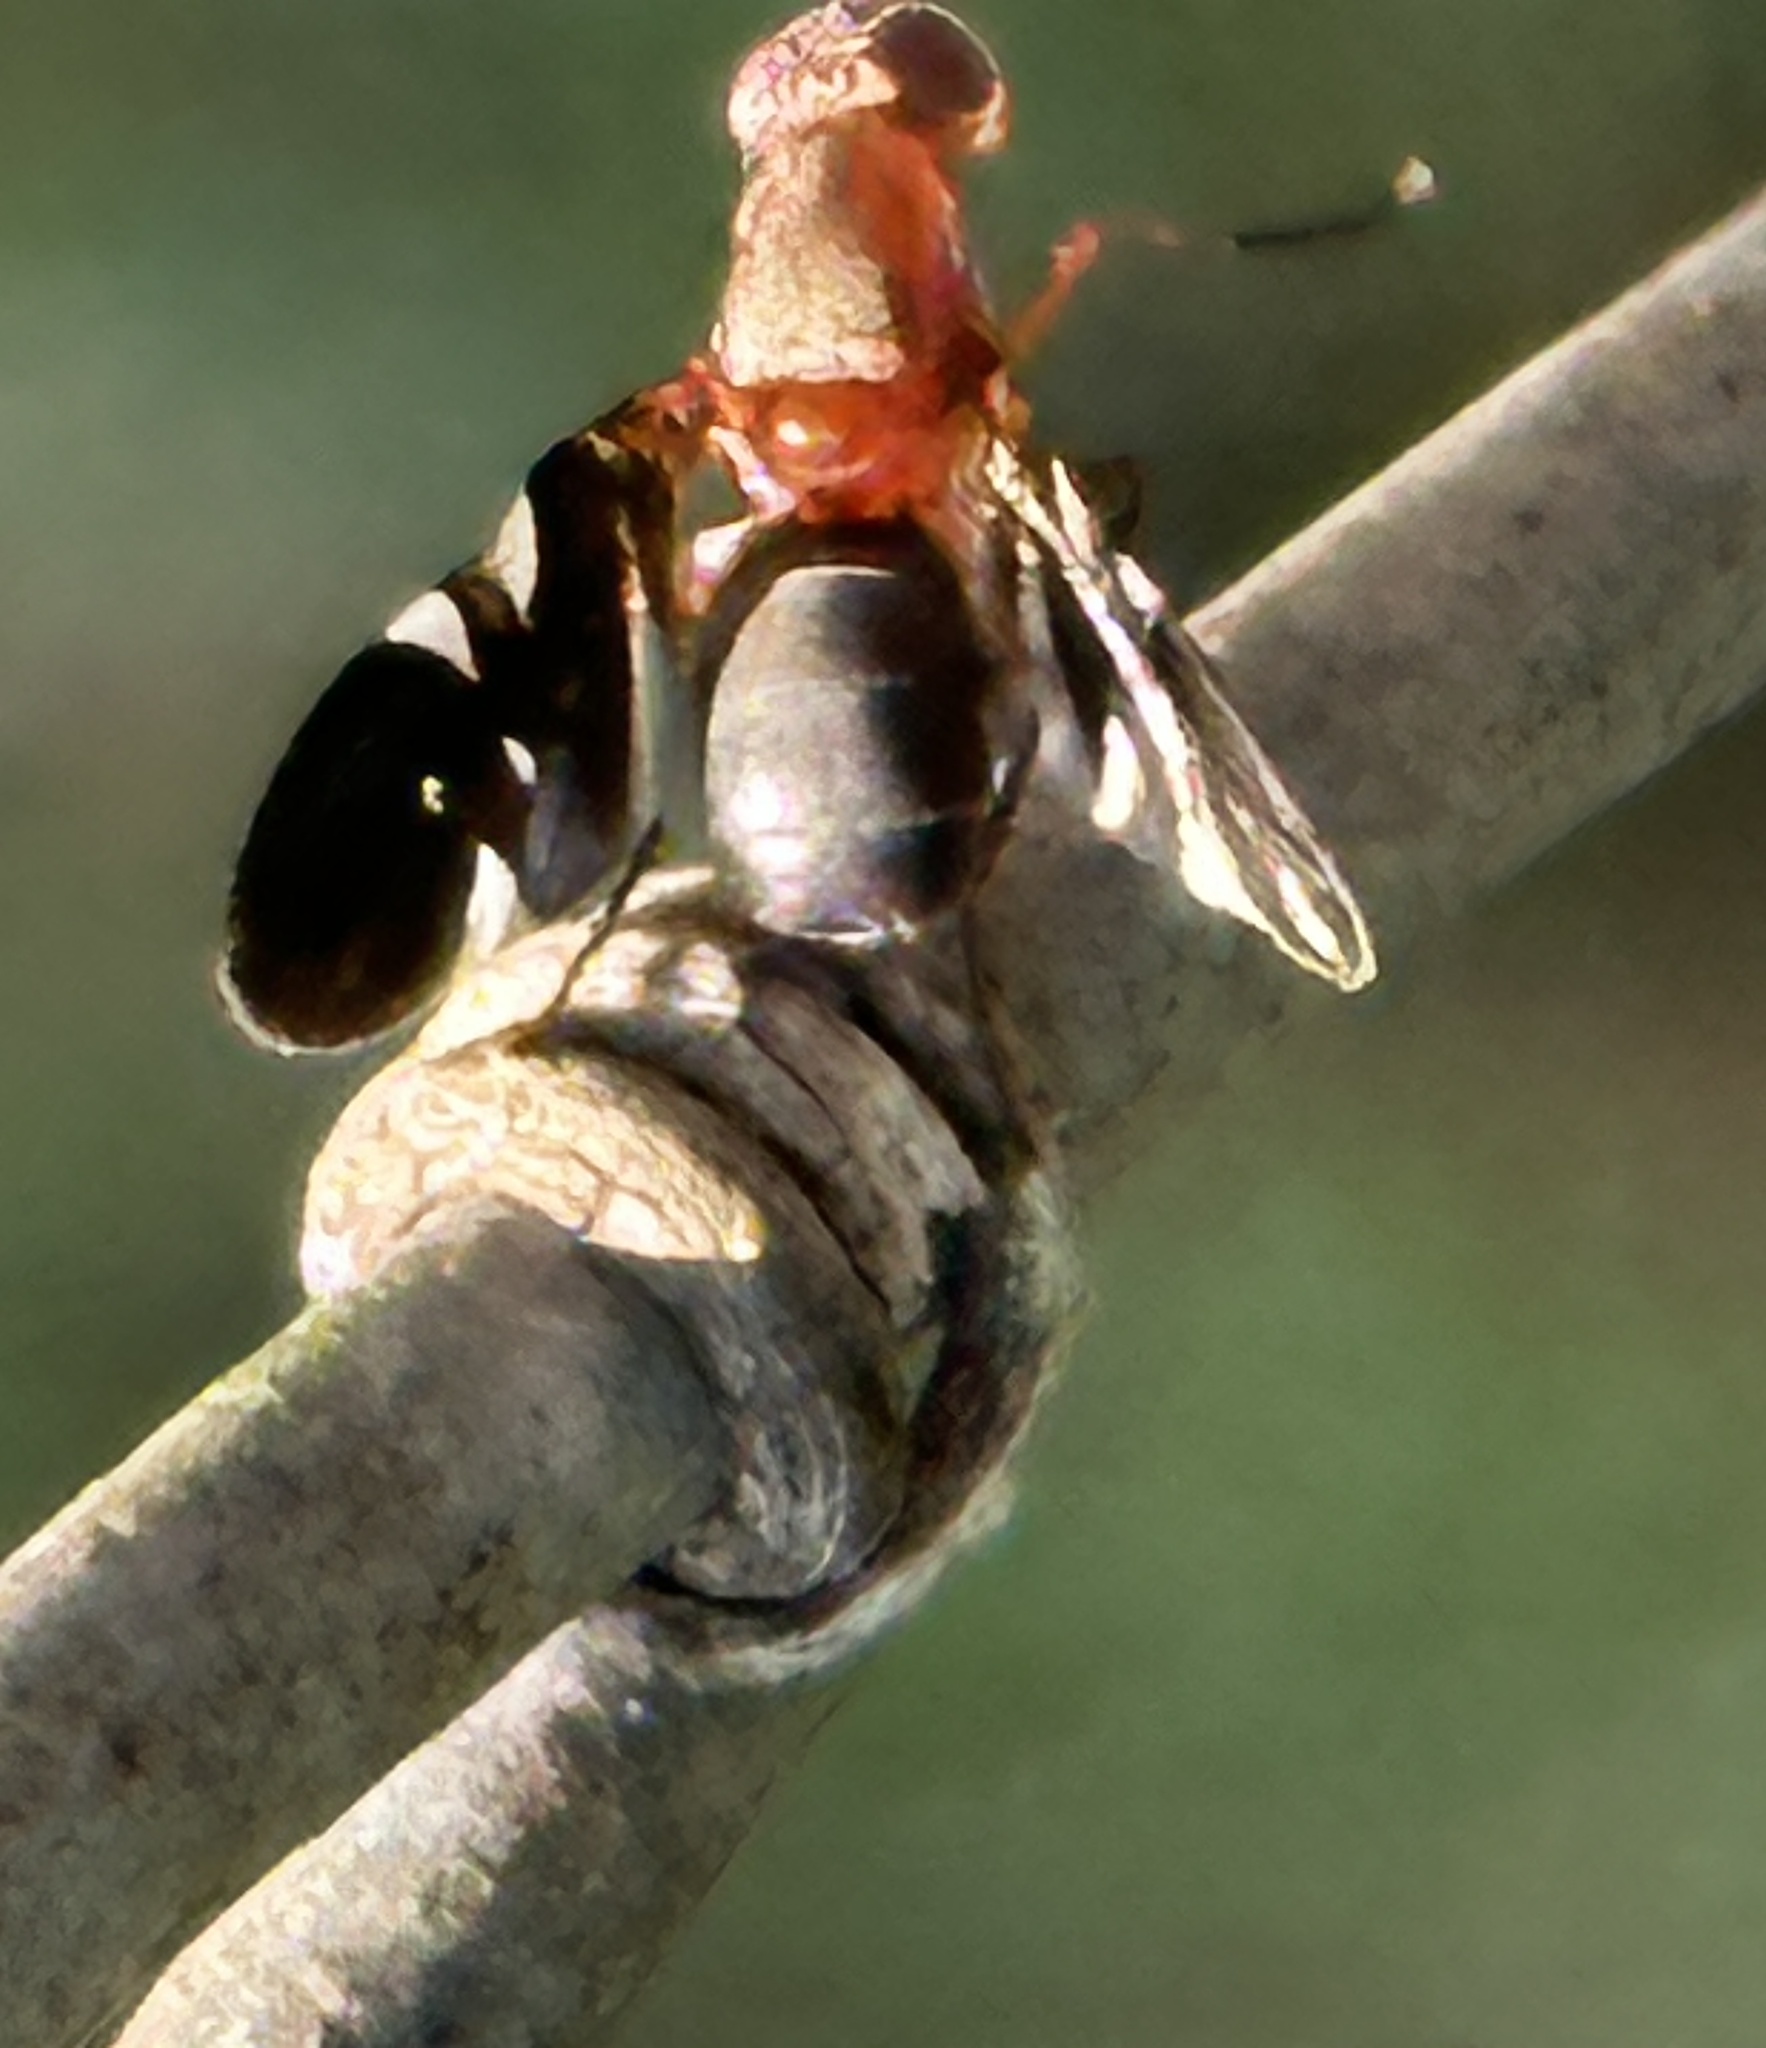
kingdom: Animalia
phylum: Arthropoda
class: Insecta
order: Diptera
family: Ulidiidae
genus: Delphinia
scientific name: Delphinia picta
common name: Common picture-winged fly
